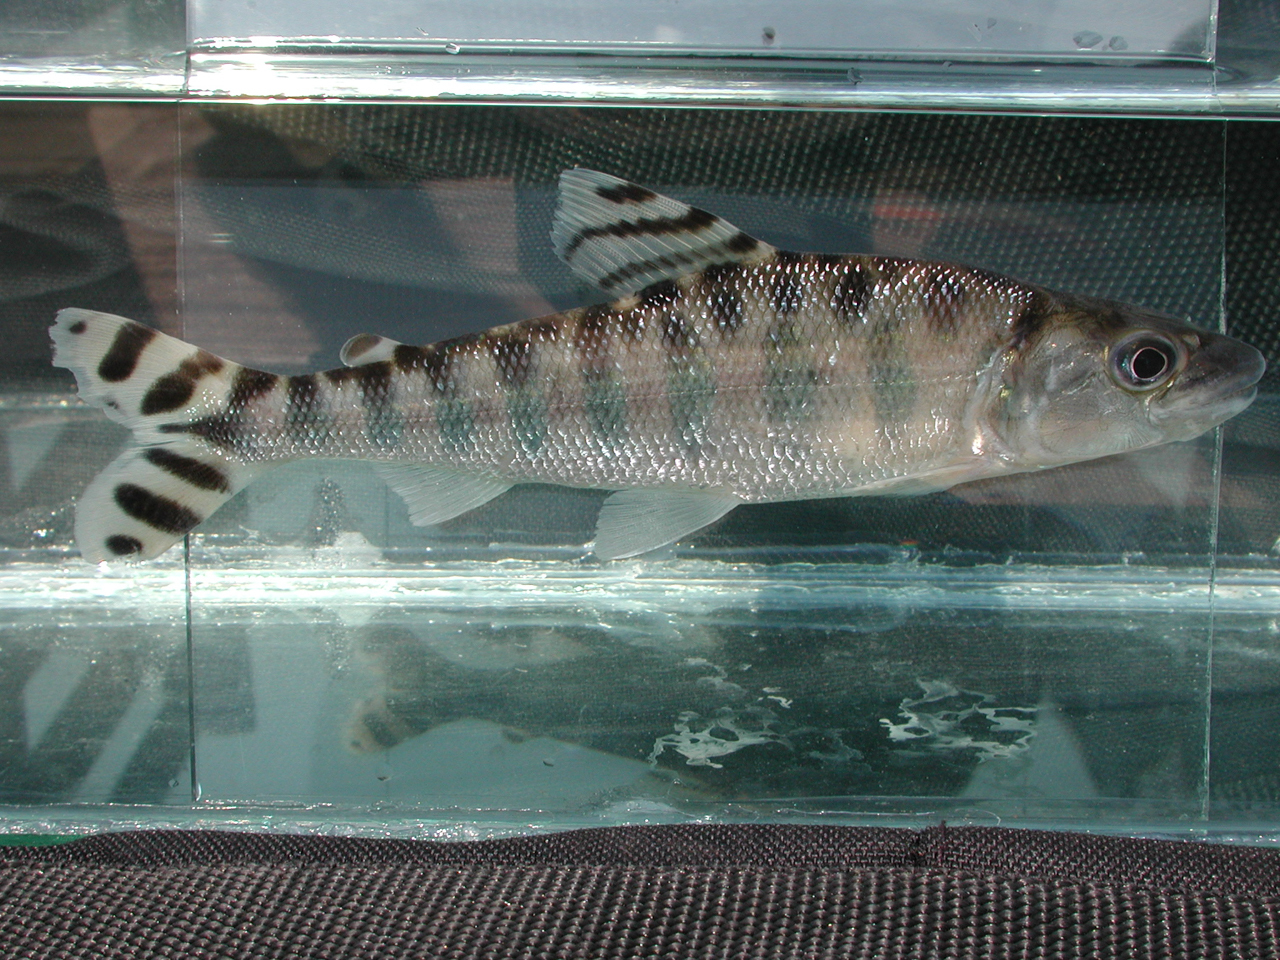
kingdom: Animalia
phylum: Chordata
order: Characiformes
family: Distichodontidae
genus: Eugnathichthys
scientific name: Eugnathichthys macroterolepis
